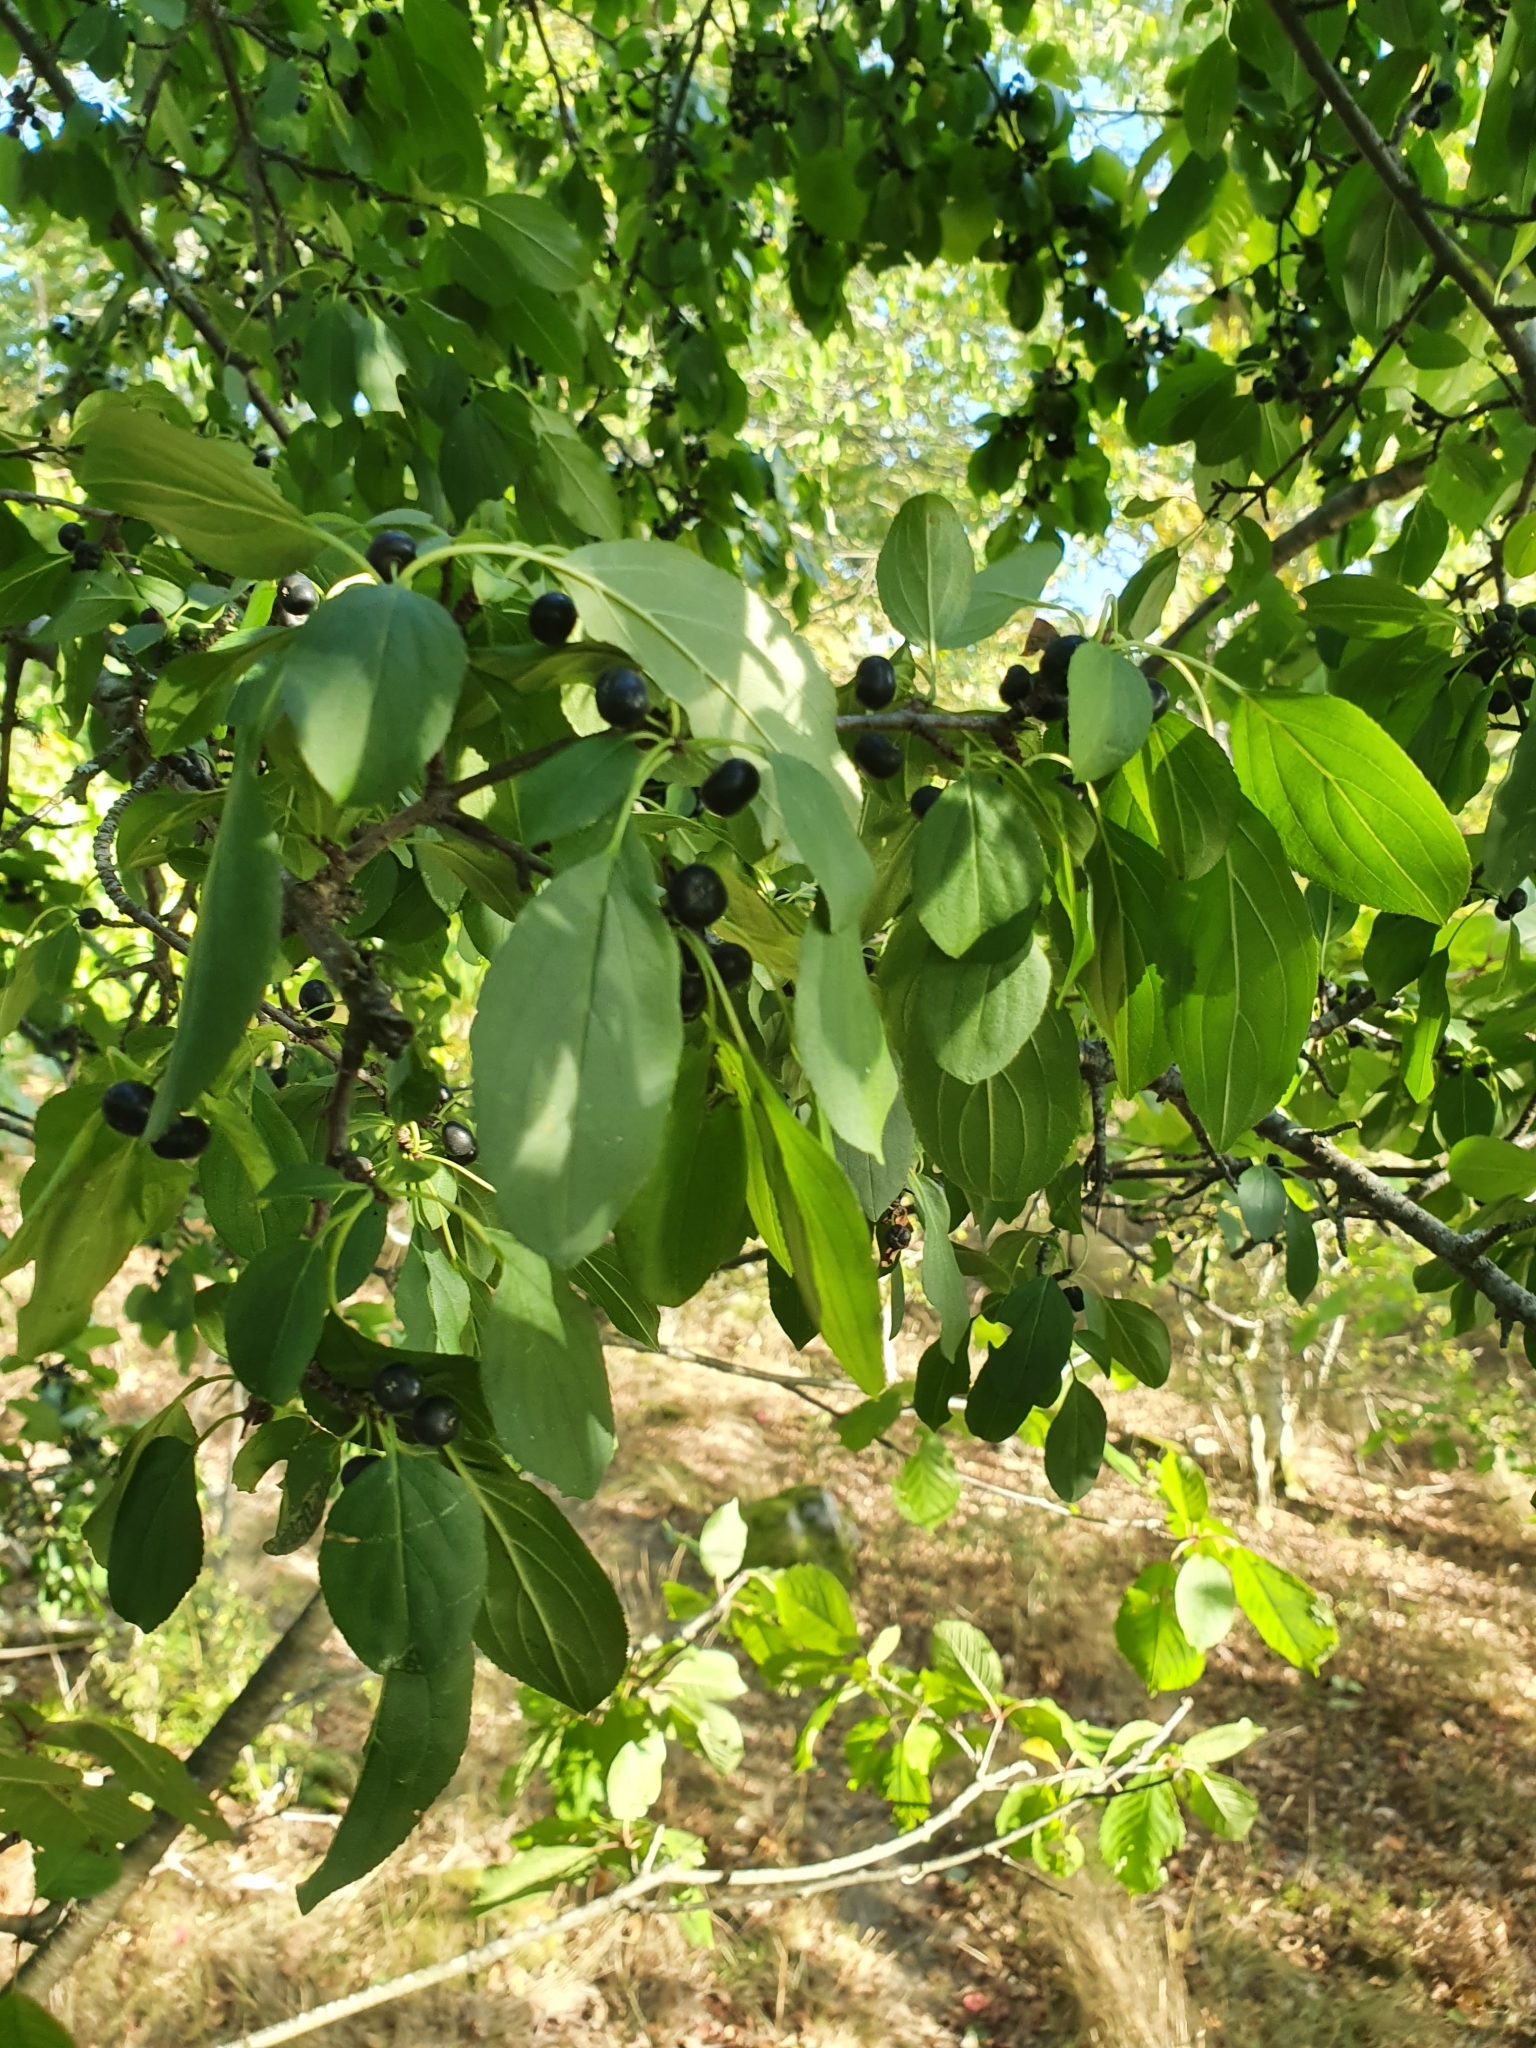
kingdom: Plantae
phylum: Tracheophyta
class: Magnoliopsida
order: Rosales
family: Rhamnaceae
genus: Rhamnus
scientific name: Rhamnus cathartica
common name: Common buckthorn
